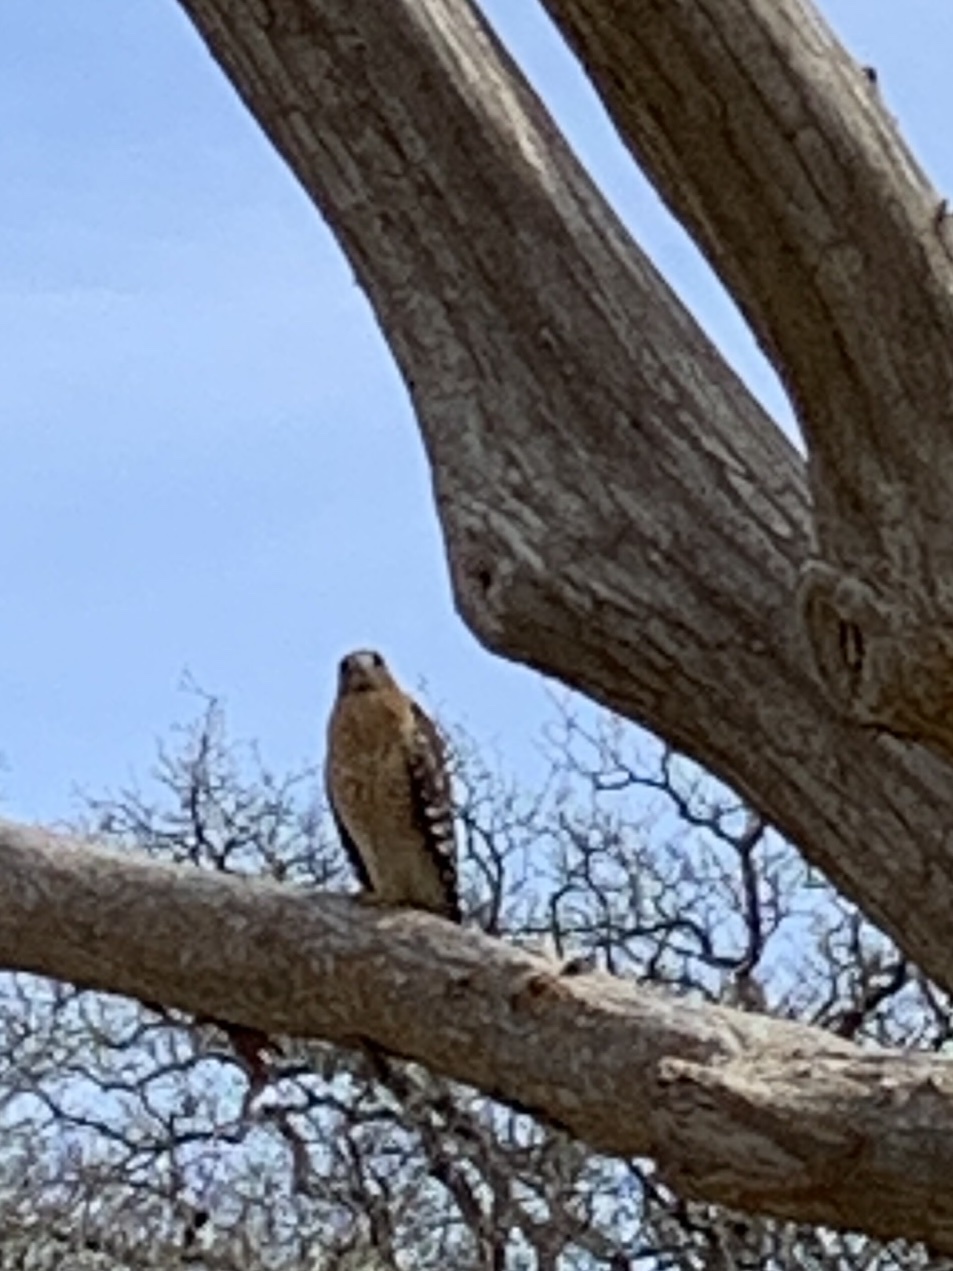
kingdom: Animalia
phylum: Chordata
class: Aves
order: Accipitriformes
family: Accipitridae
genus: Buteo
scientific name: Buteo lineatus
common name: Red-shouldered hawk
